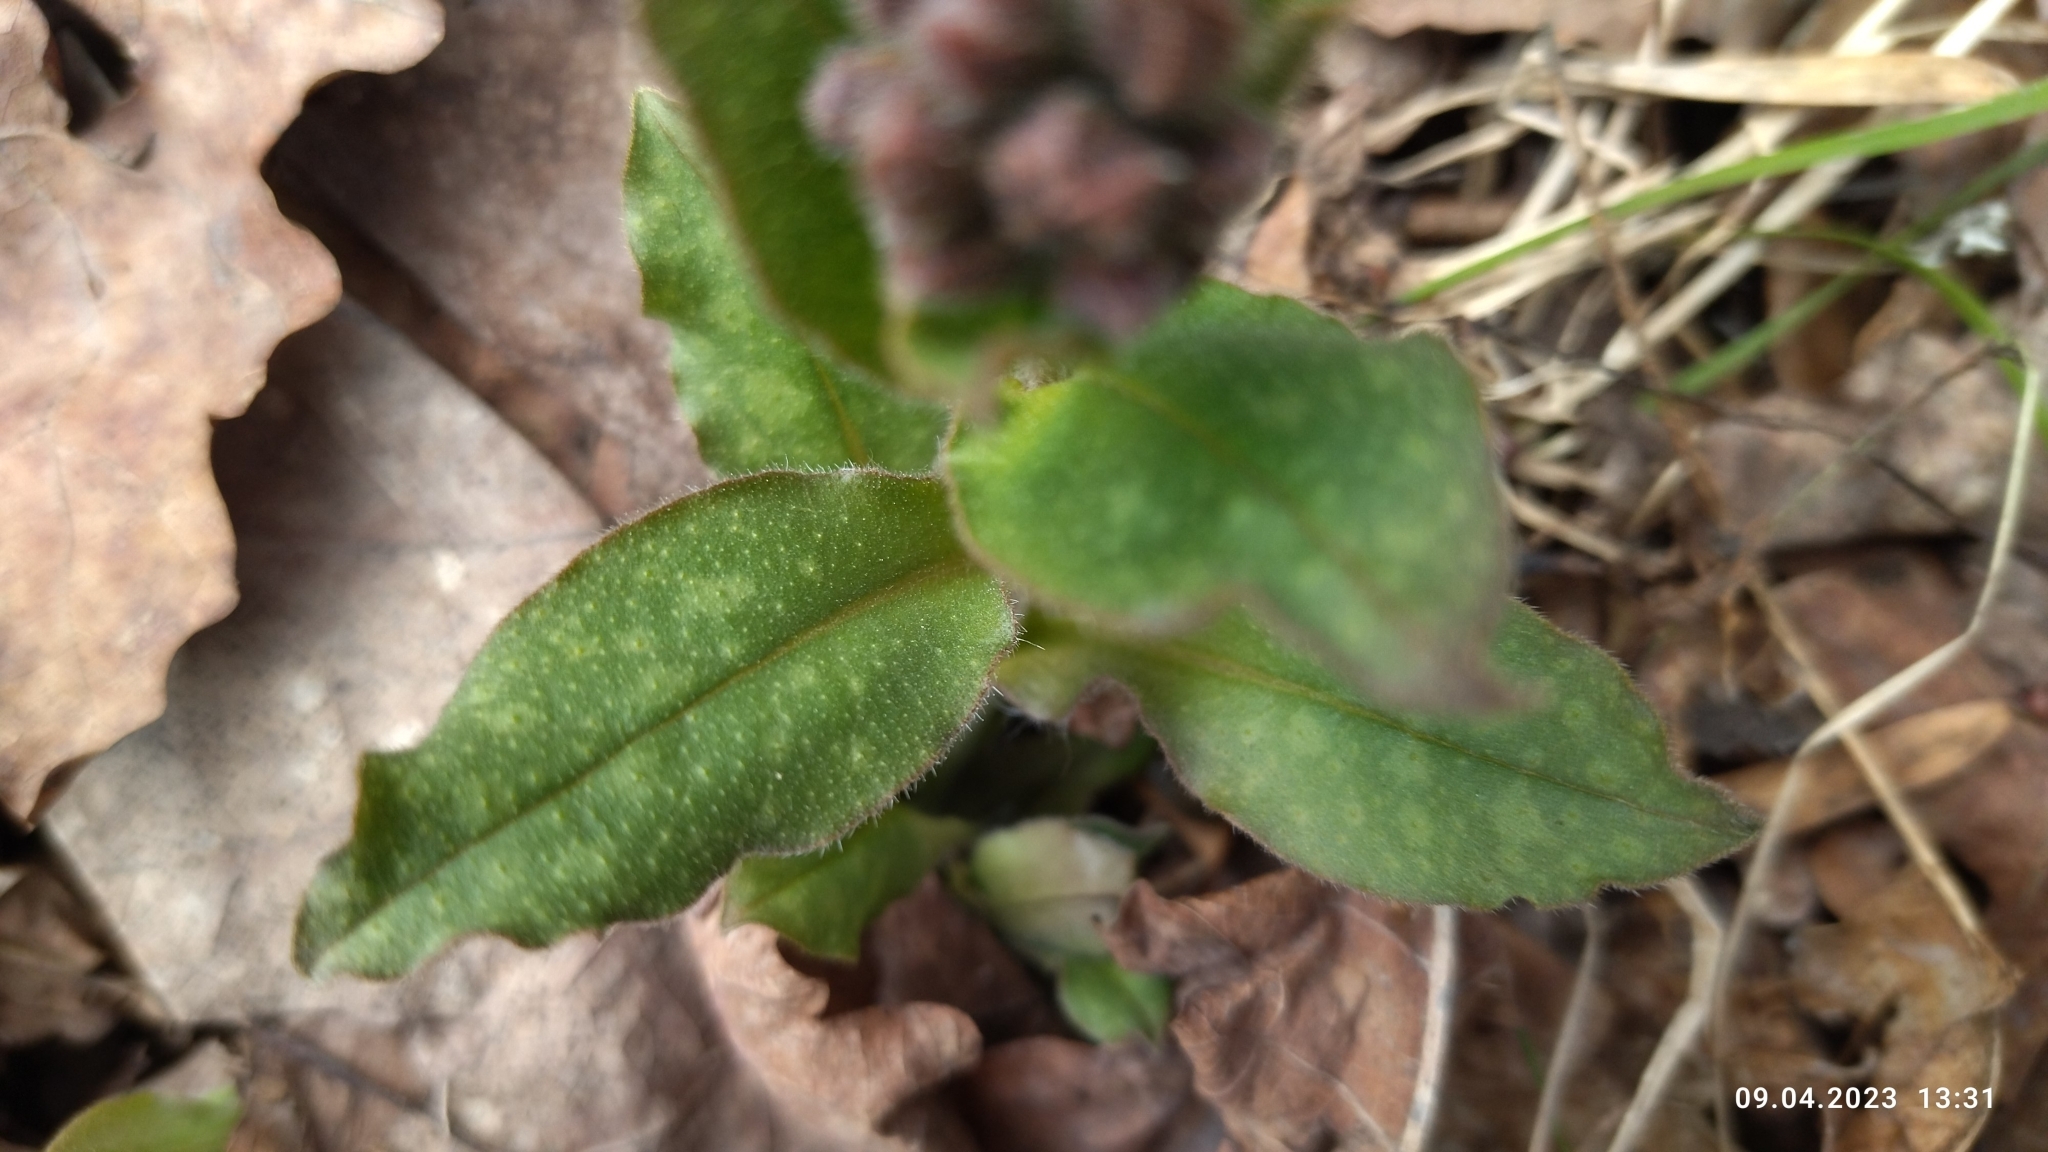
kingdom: Plantae
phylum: Tracheophyta
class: Magnoliopsida
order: Boraginales
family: Boraginaceae
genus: Pulmonaria
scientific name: Pulmonaria obscura
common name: Suffolk lungwort
